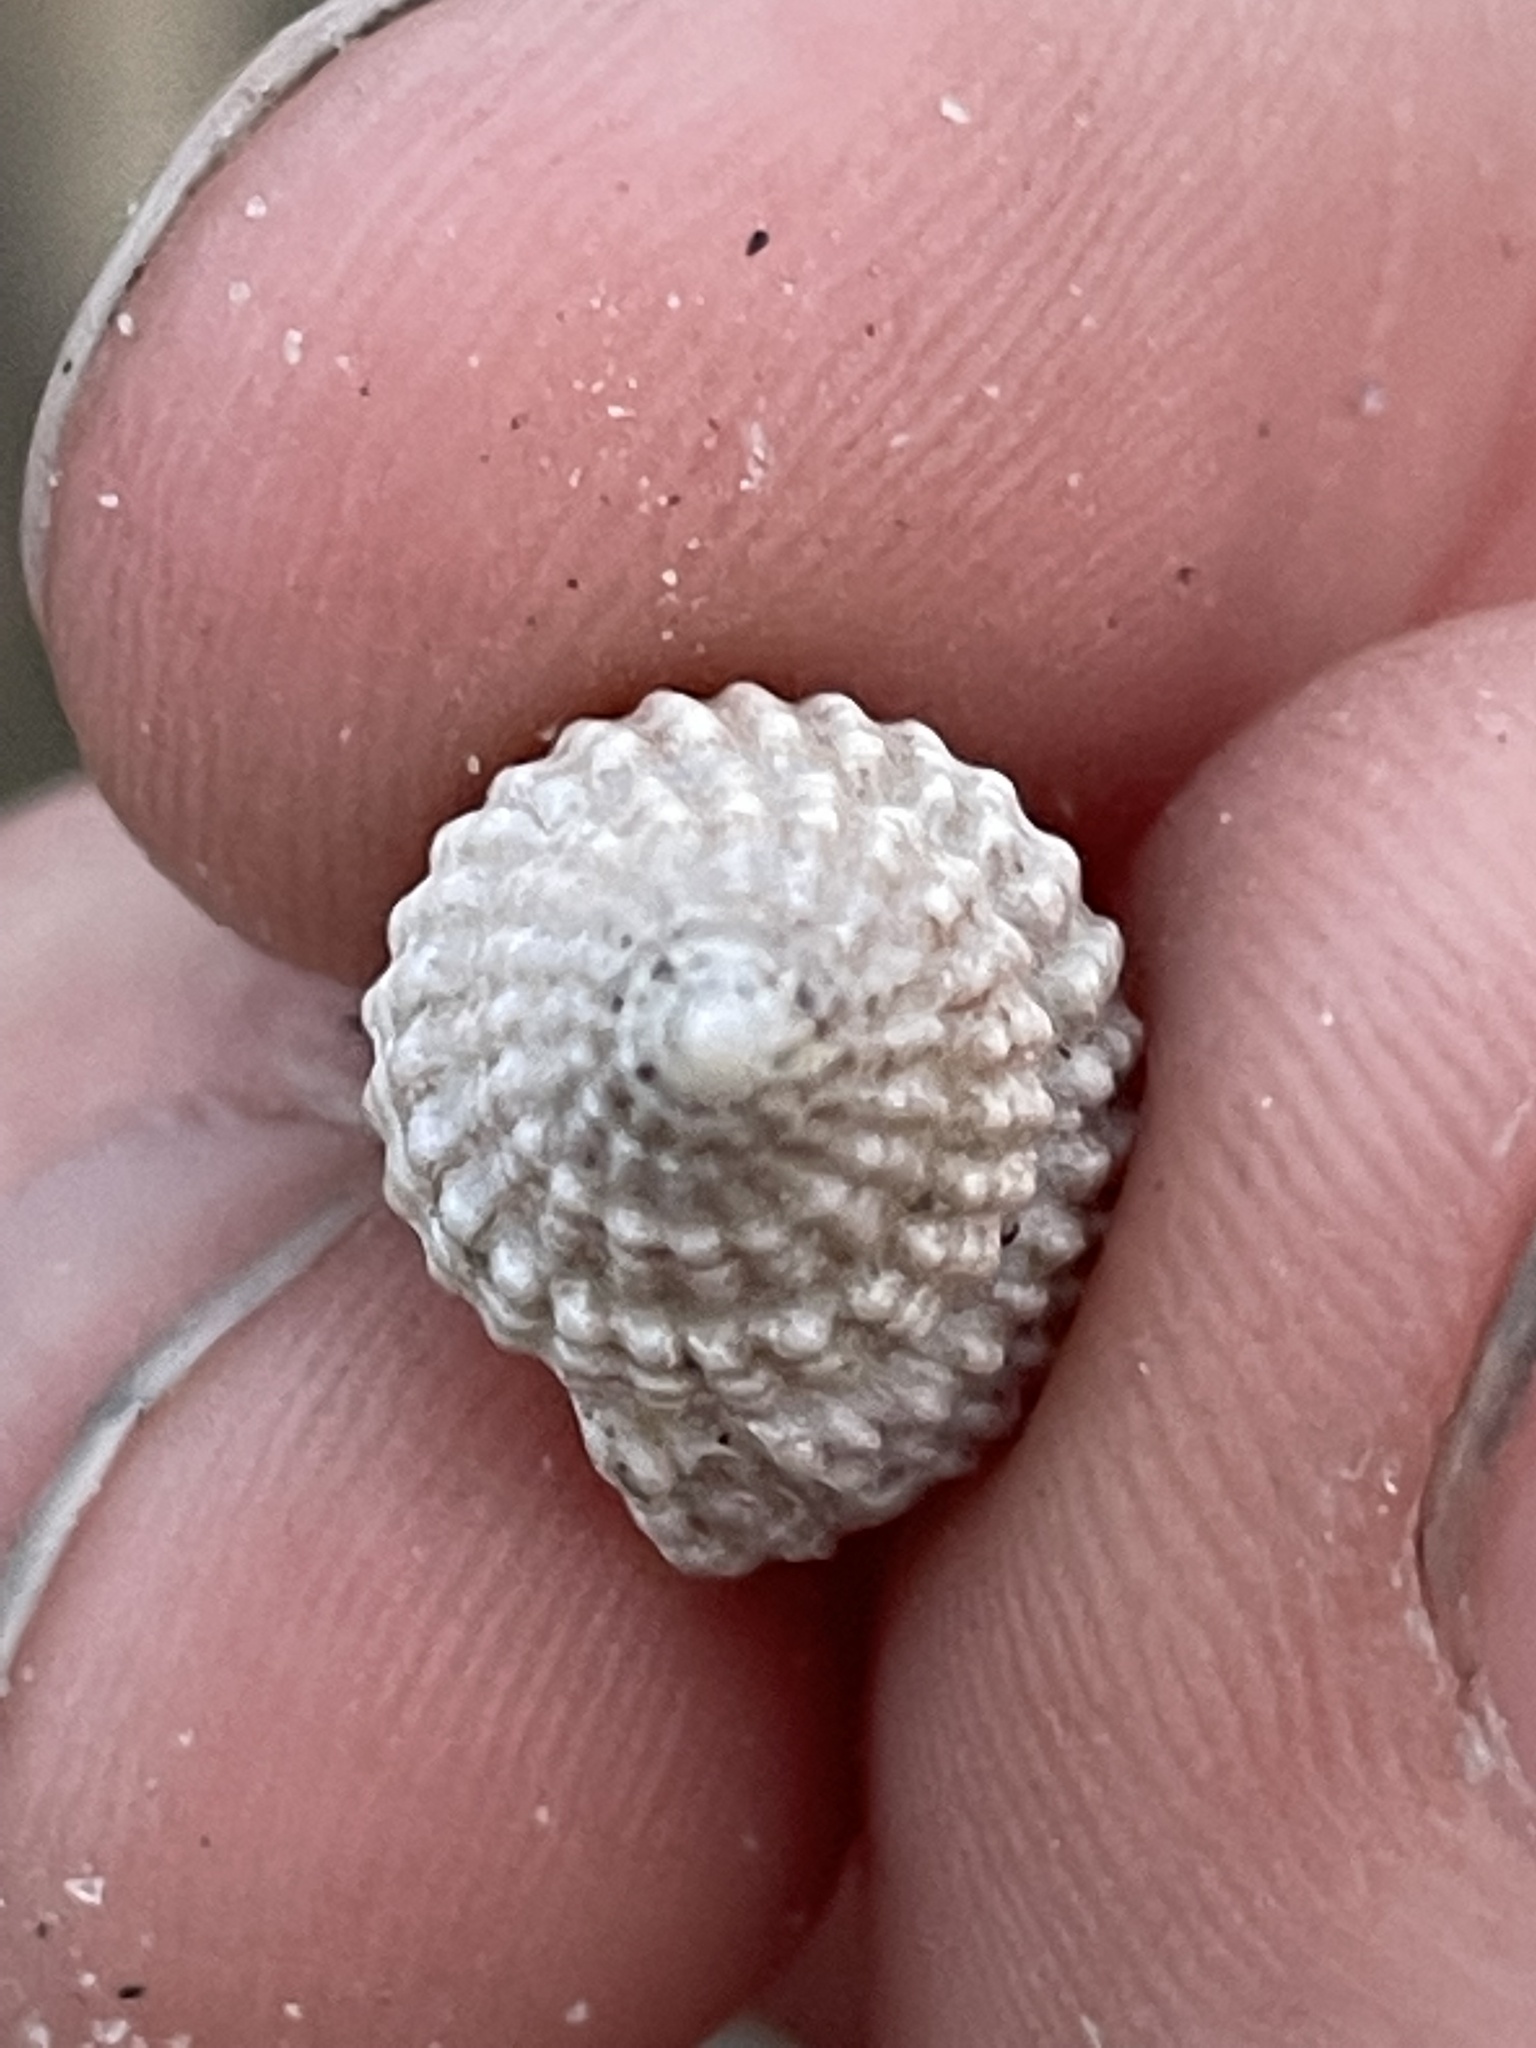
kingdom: Animalia
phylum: Mollusca
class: Gastropoda
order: Neogastropoda
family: Nassariidae
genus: Ilyanassa
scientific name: Ilyanassa trivittata
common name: Three-line mudsnail
